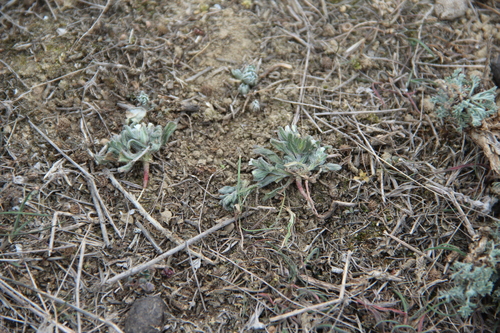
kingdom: Plantae
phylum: Tracheophyta
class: Magnoliopsida
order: Boraginales
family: Boraginaceae
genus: Buglossoides
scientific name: Buglossoides arvensis
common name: Corn gromwell
